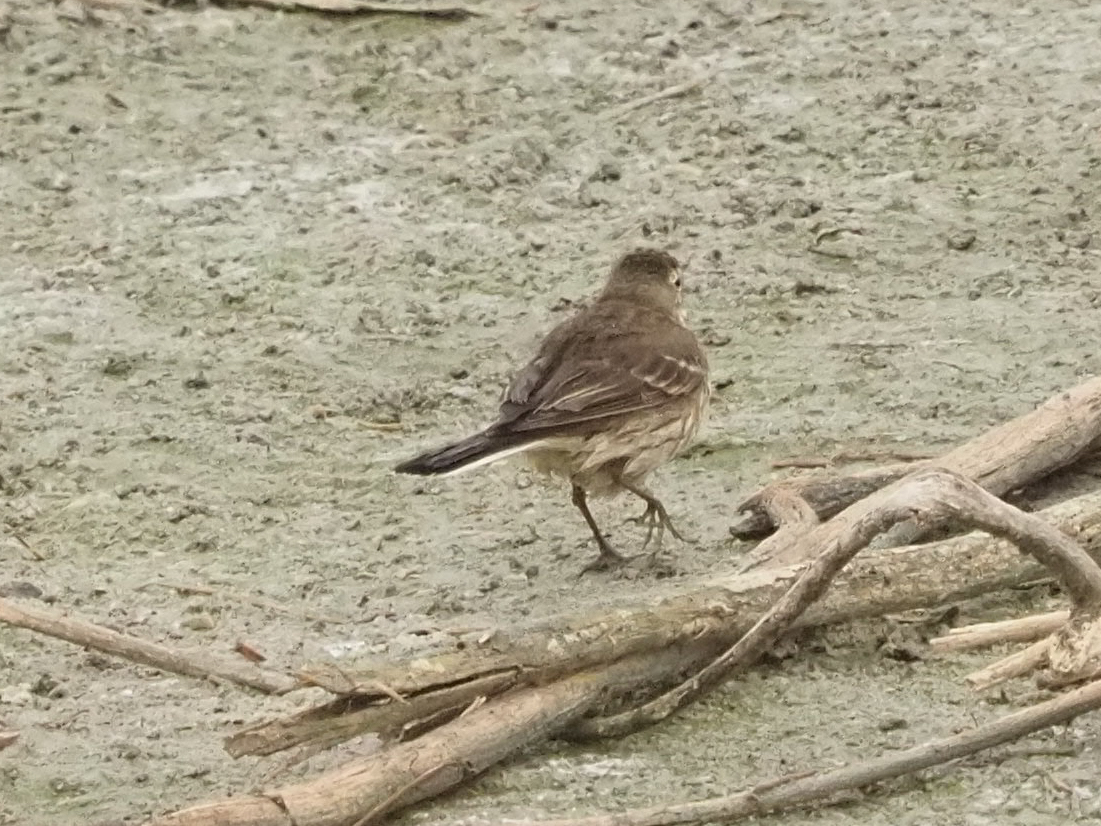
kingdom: Animalia
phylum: Chordata
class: Aves
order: Passeriformes
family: Motacillidae
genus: Anthus
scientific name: Anthus rubescens
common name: Buff-bellied pipit
